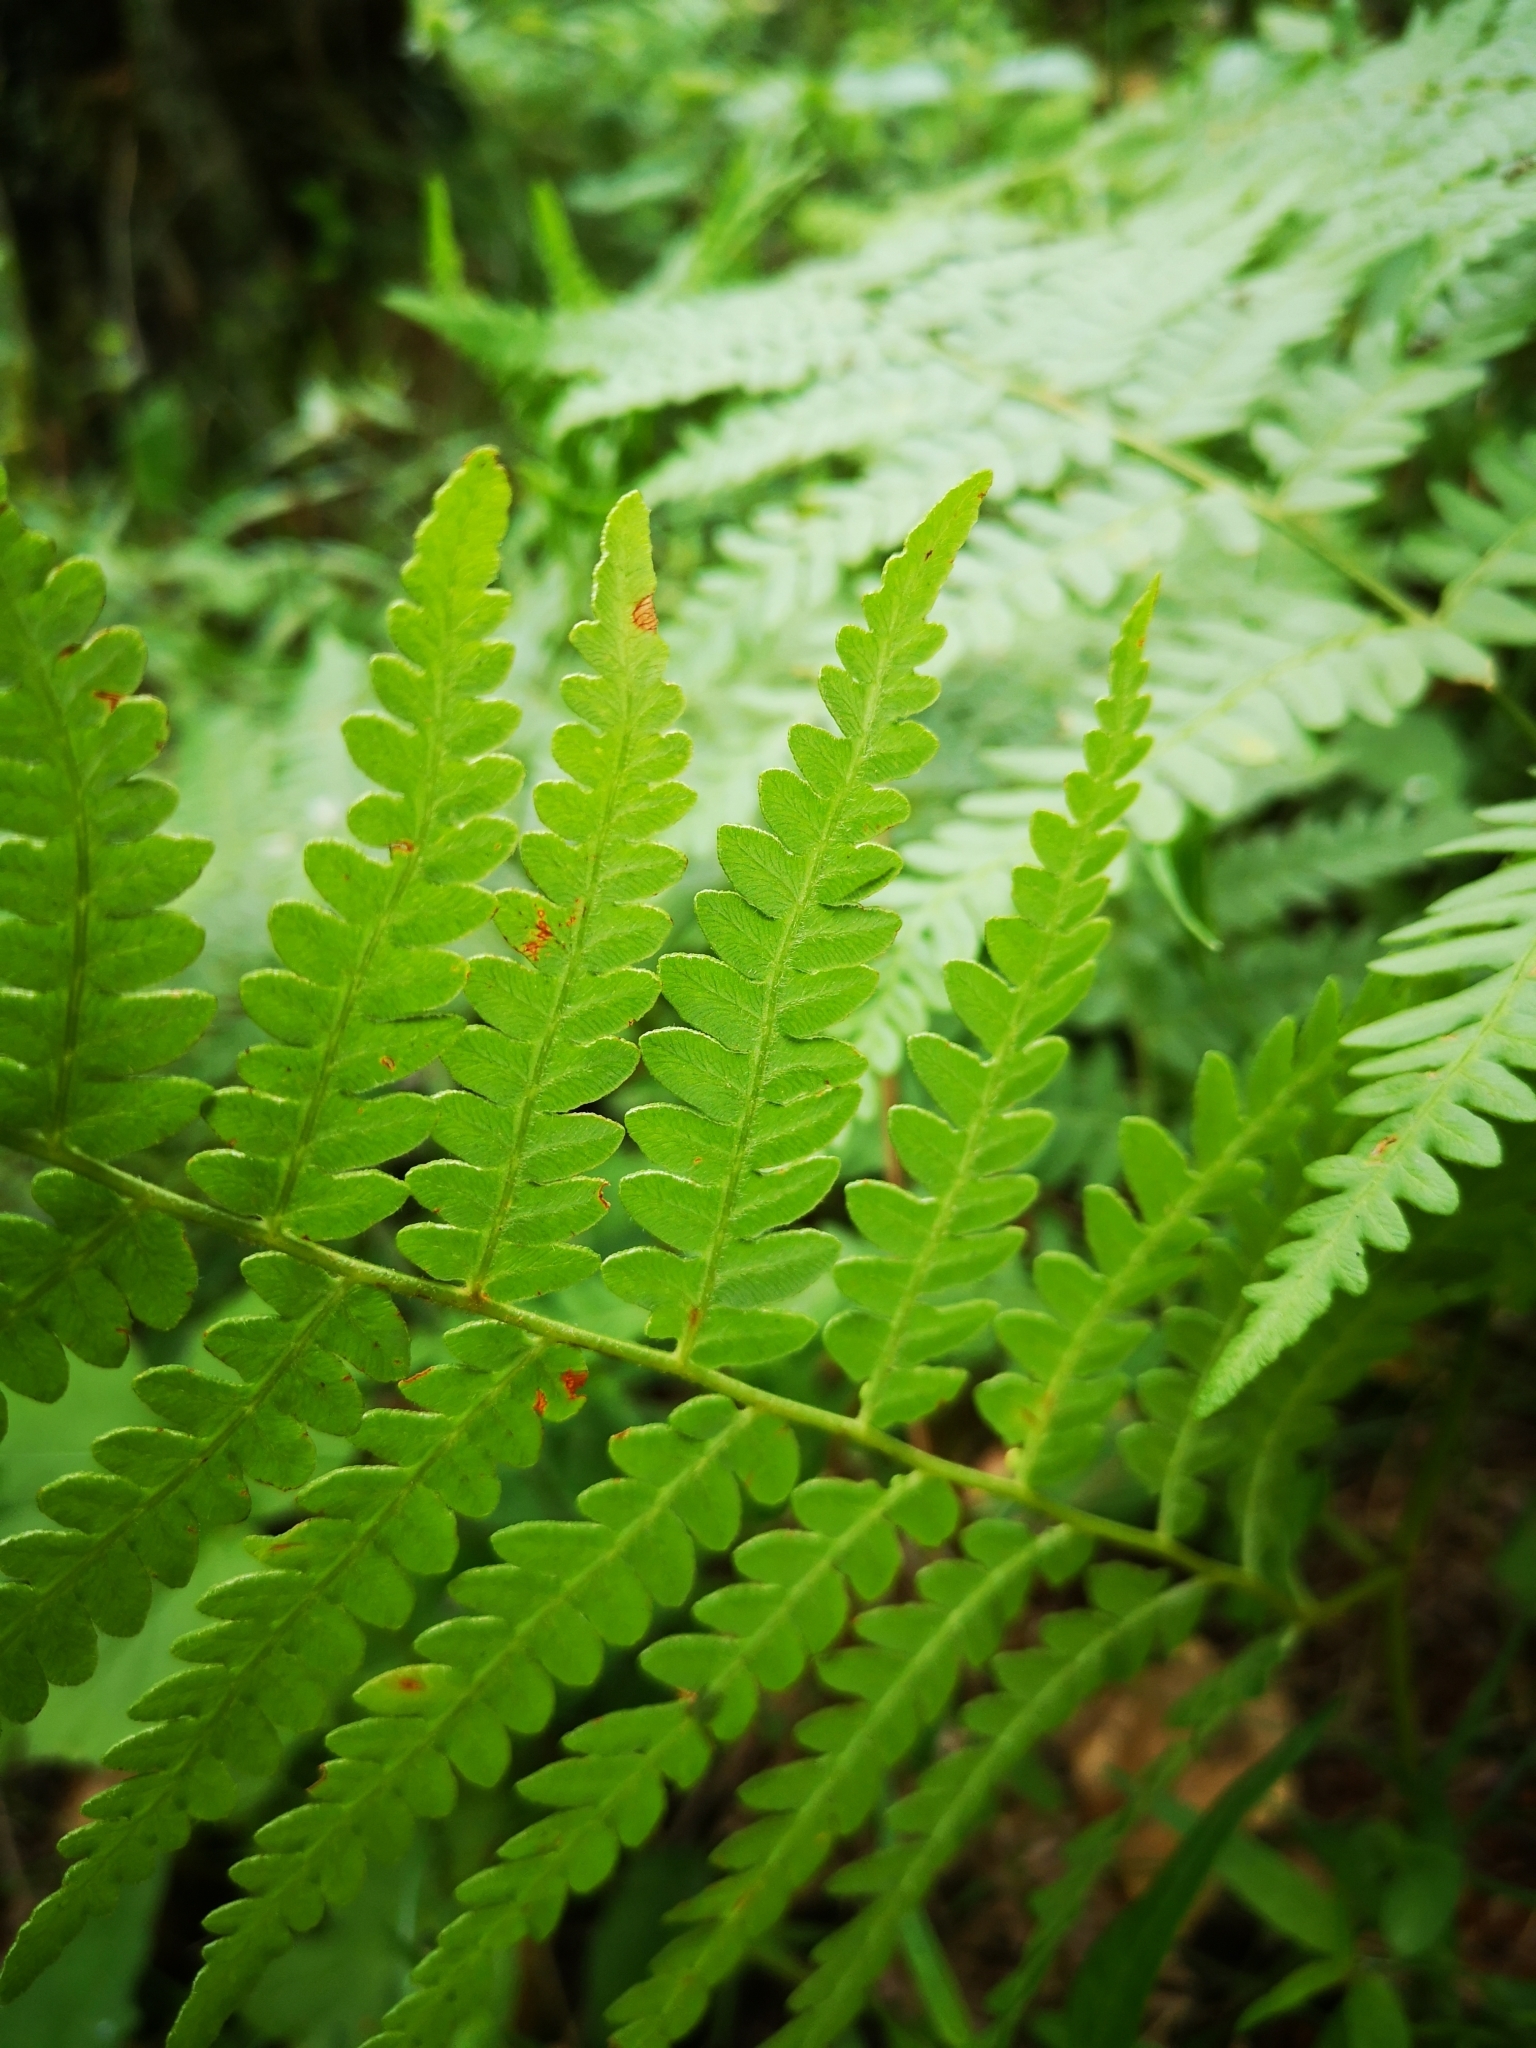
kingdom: Plantae
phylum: Tracheophyta
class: Polypodiopsida
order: Polypodiales
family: Dennstaedtiaceae
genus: Pteridium
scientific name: Pteridium aquilinum
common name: Bracken
